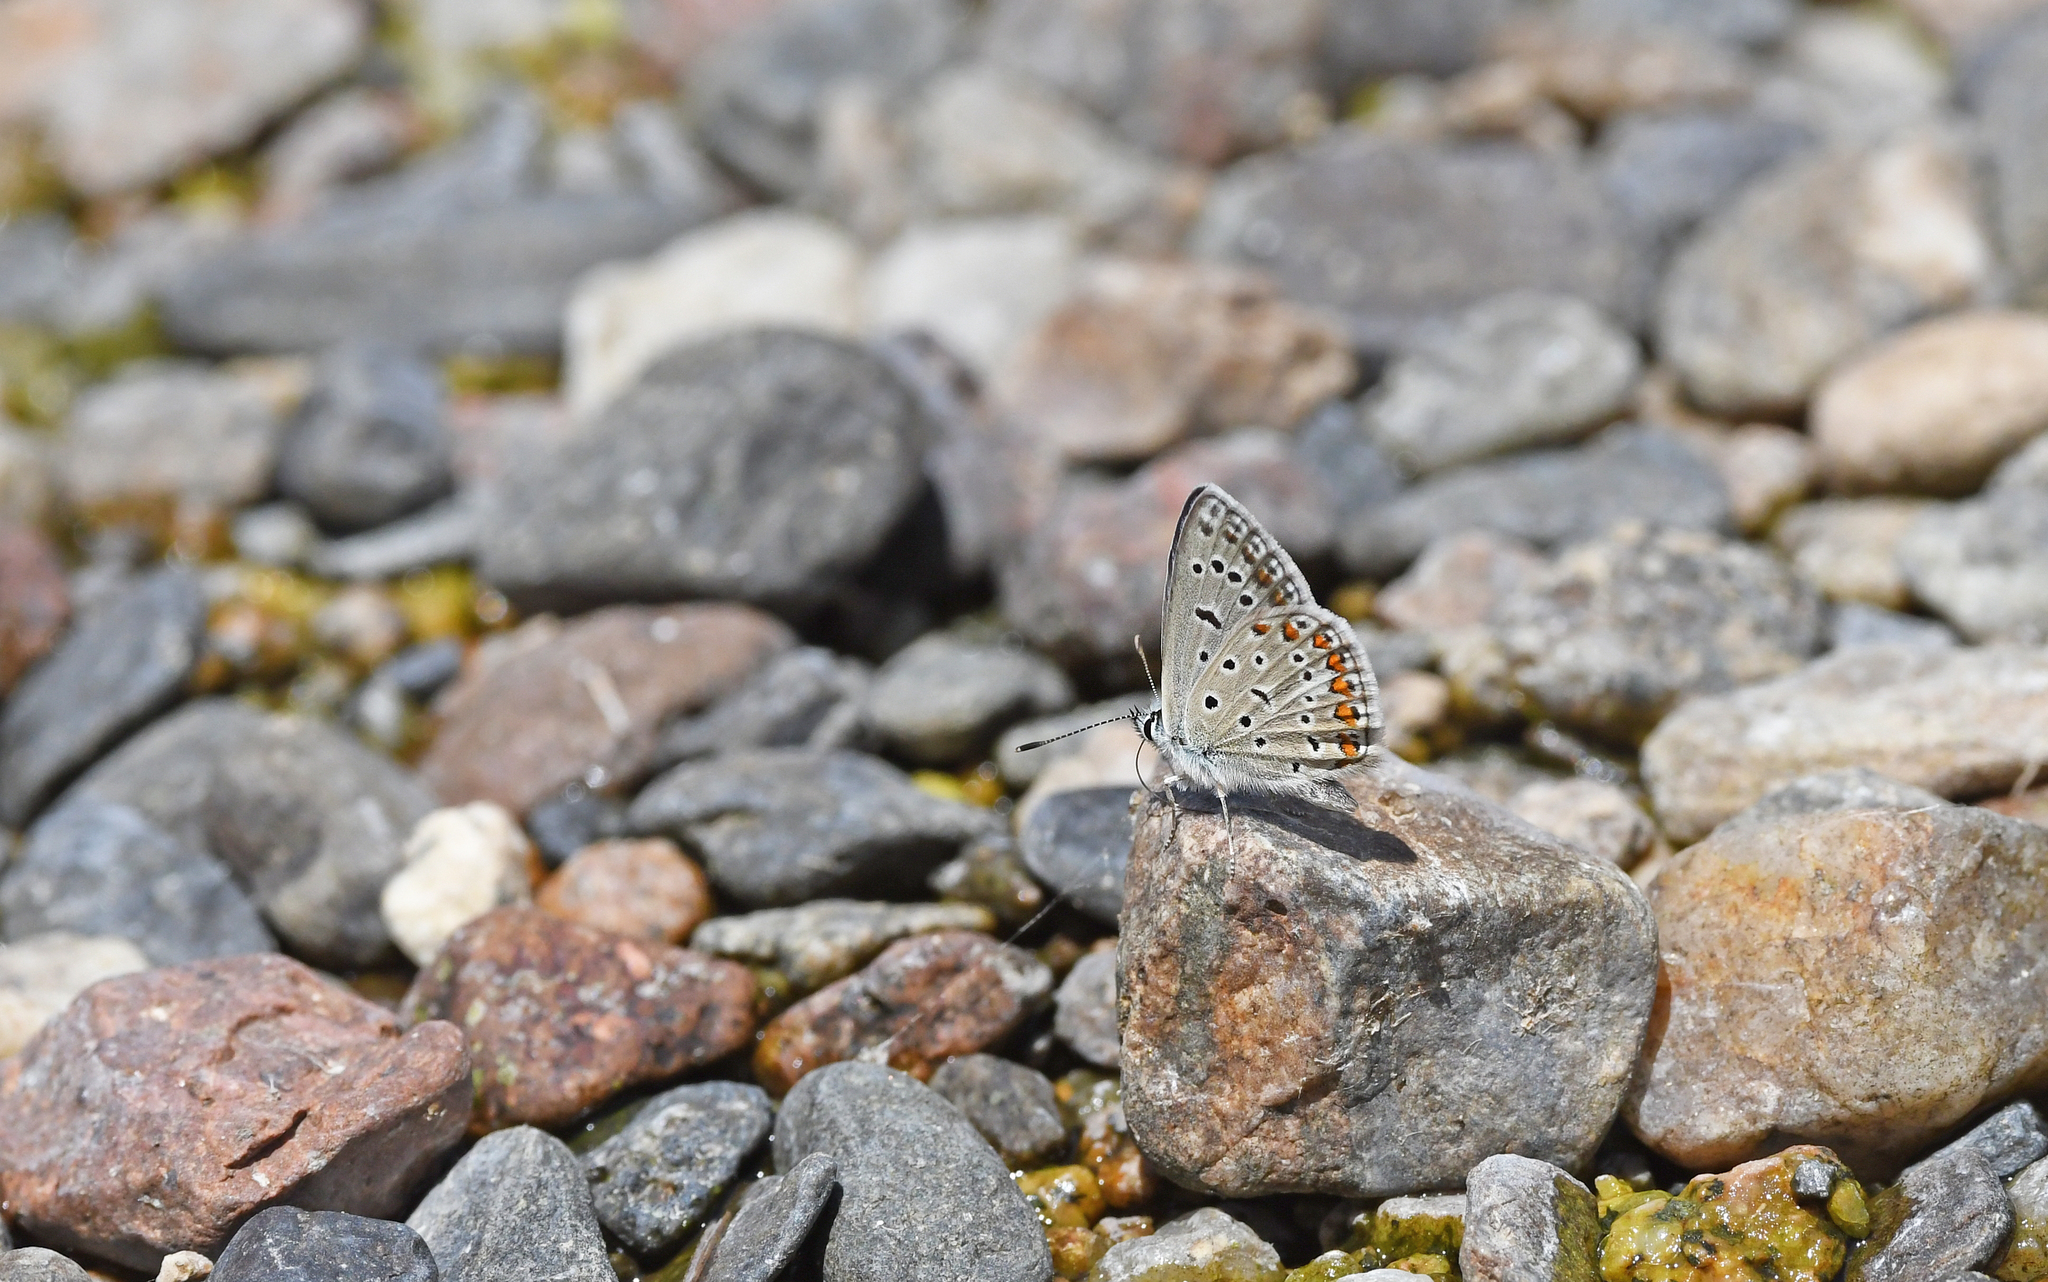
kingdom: Animalia
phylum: Arthropoda
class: Insecta
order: Lepidoptera
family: Lycaenidae
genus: Polyommatus
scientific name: Polyommatus celina
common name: Austaut's blue
